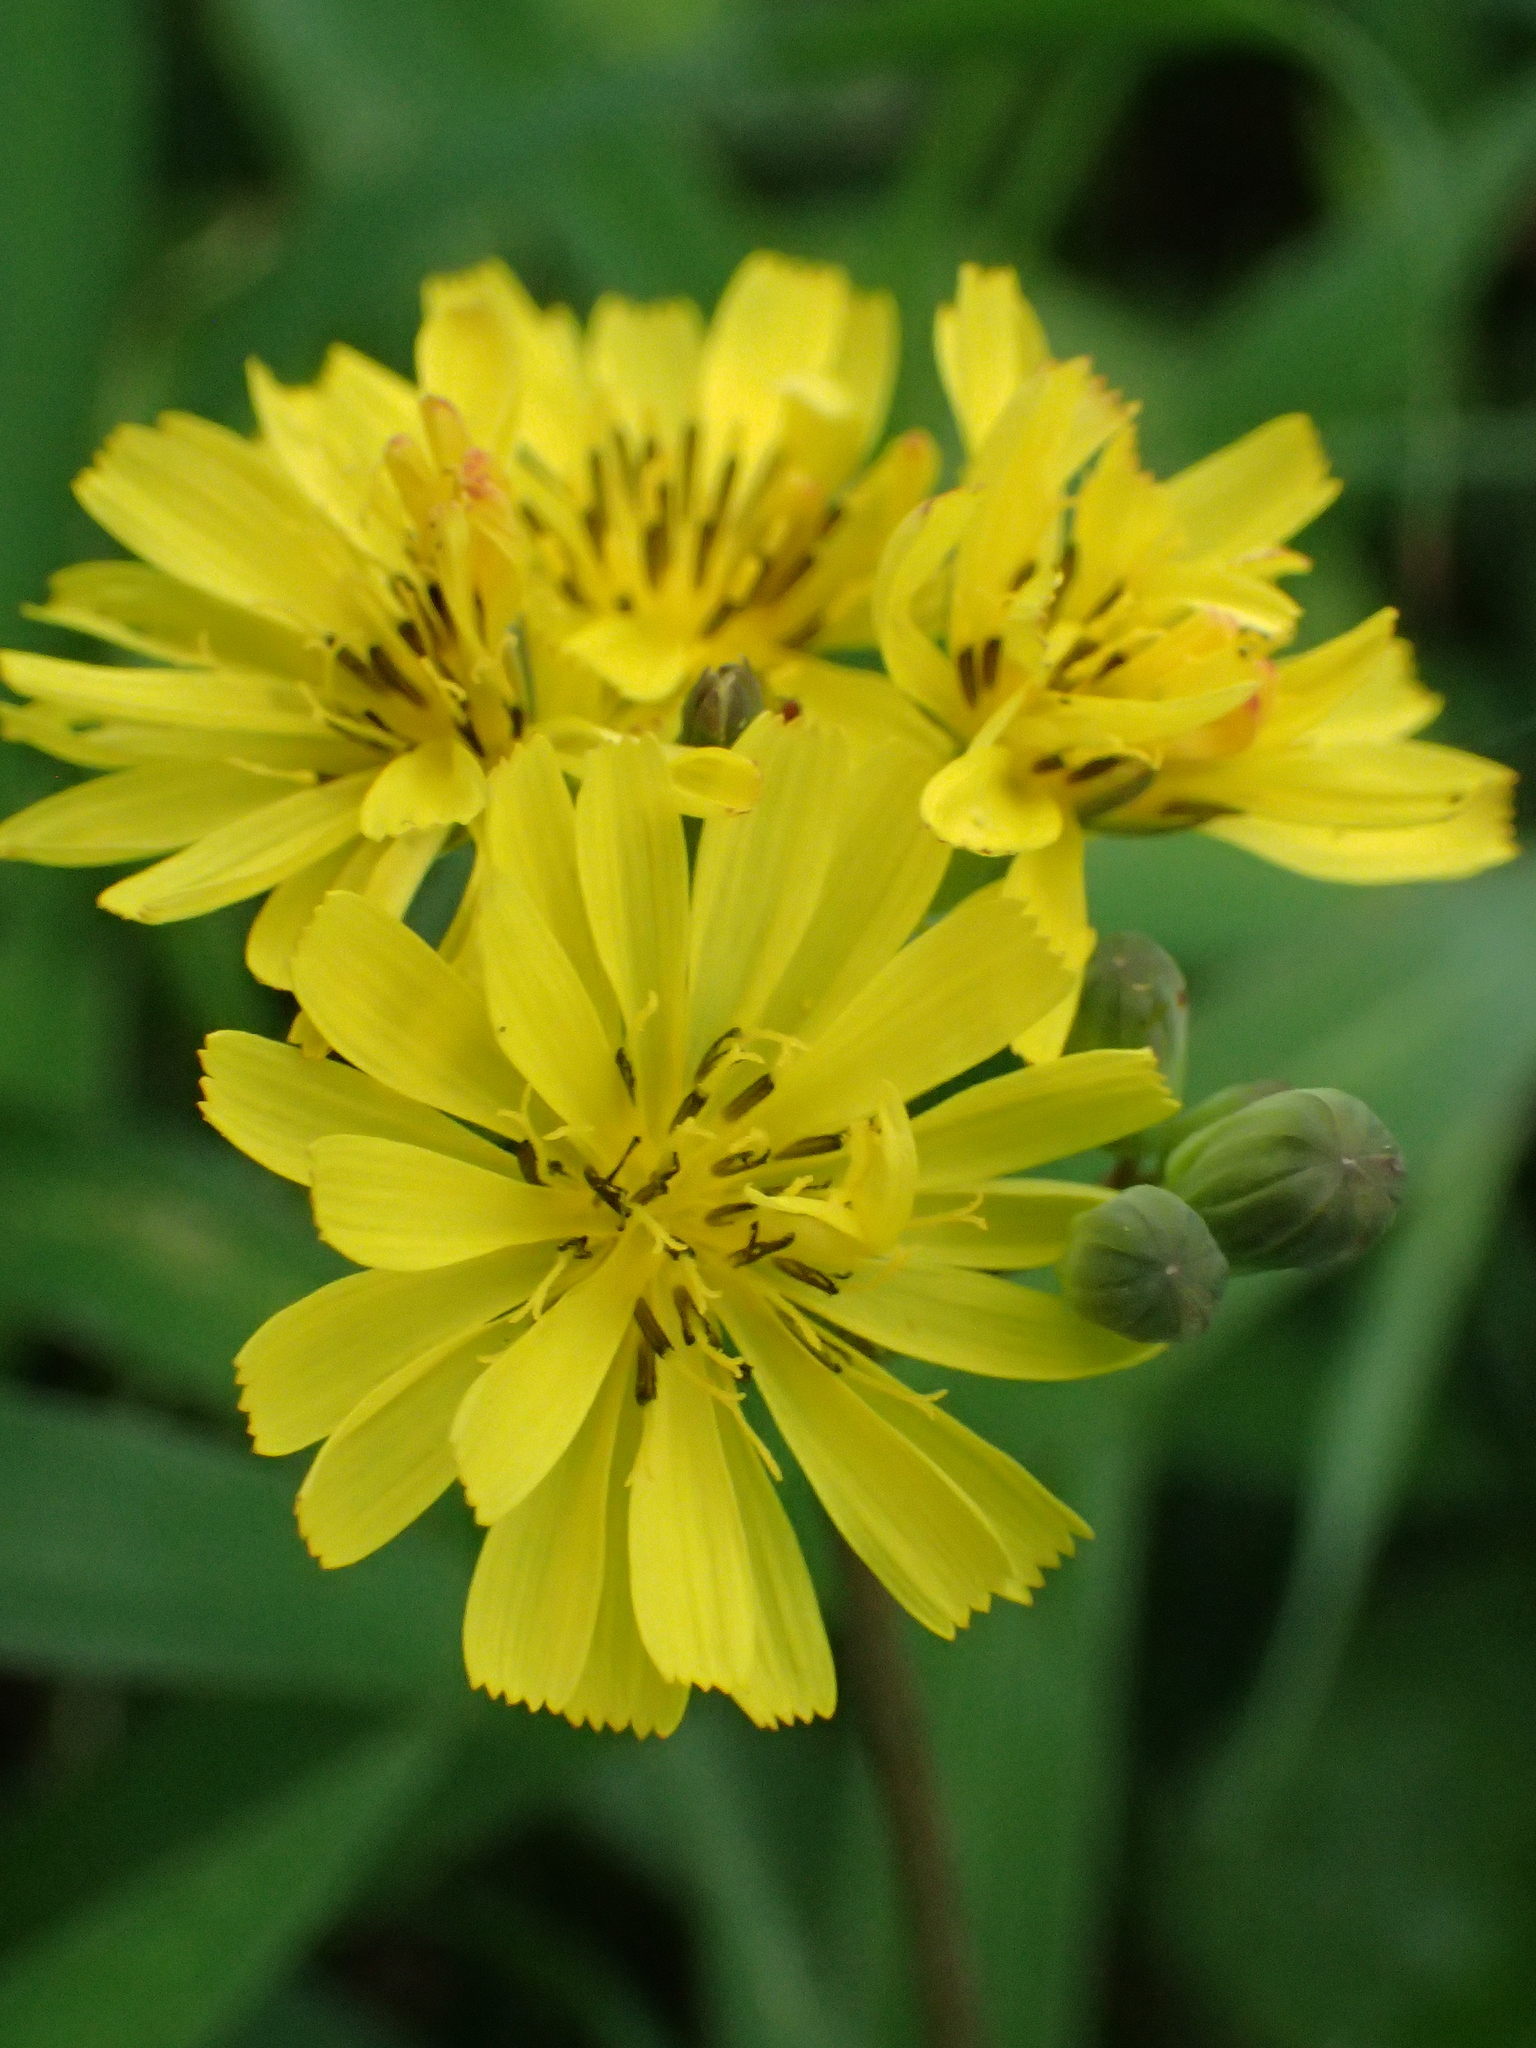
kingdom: Plantae
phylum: Tracheophyta
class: Magnoliopsida
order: Asterales
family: Asteraceae
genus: Youngia
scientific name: Youngia japonica
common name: Oriental false hawksbeard
